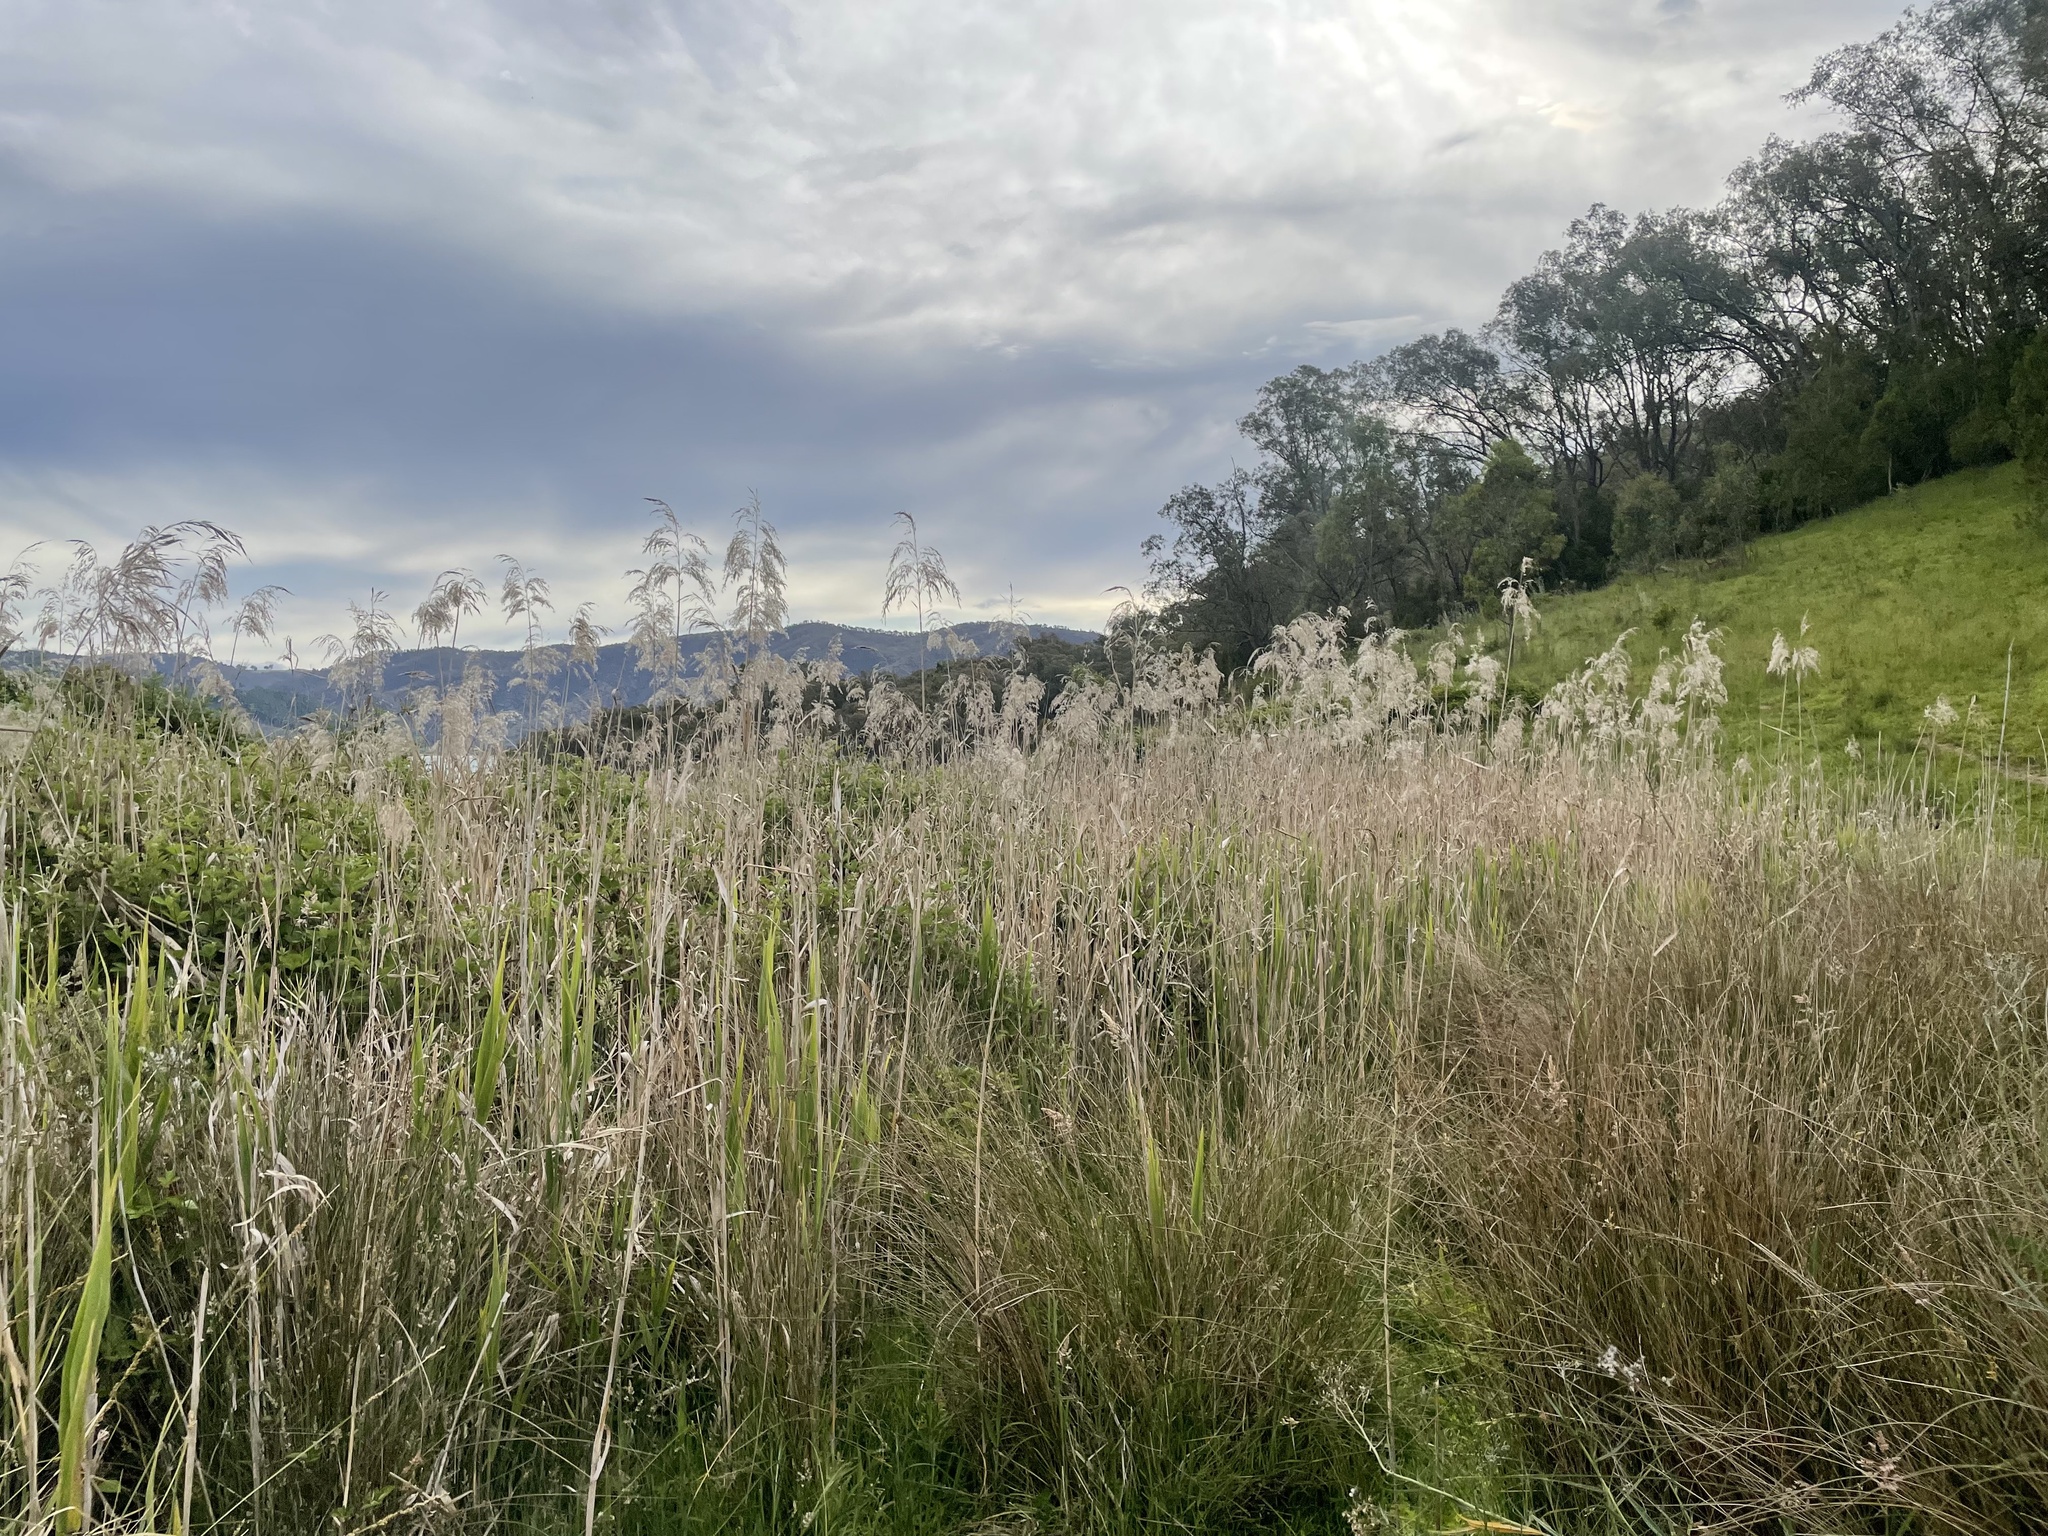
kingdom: Plantae
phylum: Tracheophyta
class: Liliopsida
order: Poales
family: Poaceae
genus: Phragmites
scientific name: Phragmites australis
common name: Common reed
